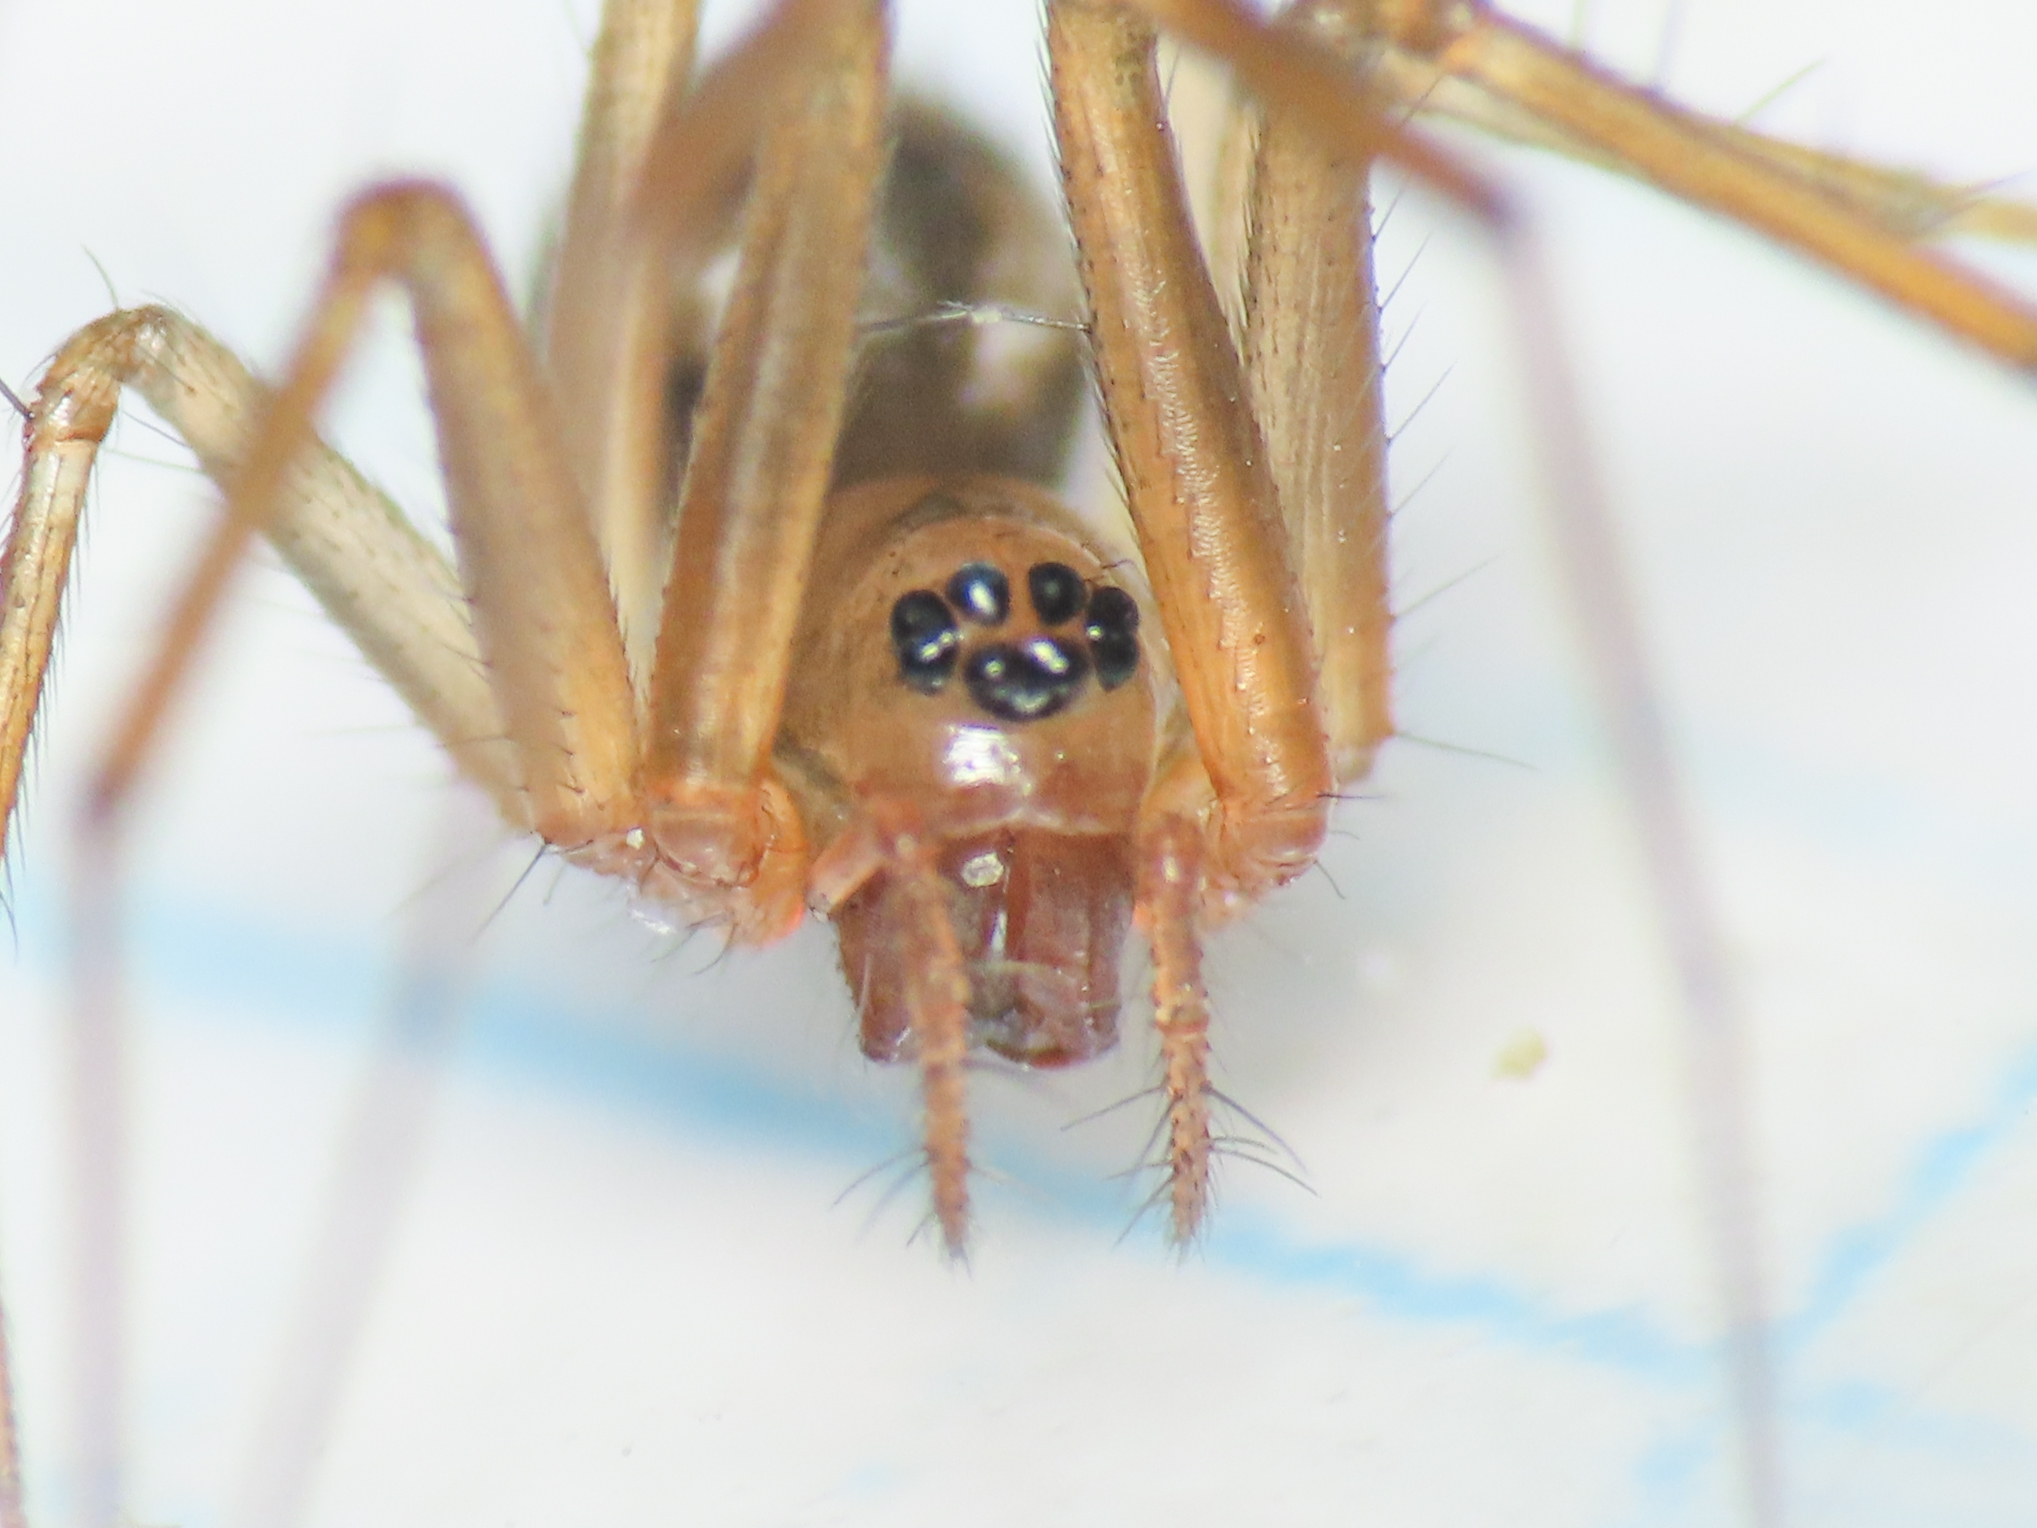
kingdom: Animalia
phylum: Arthropoda
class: Arachnida
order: Araneae
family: Linyphiidae
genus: Tenuiphantes
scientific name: Tenuiphantes tenuis
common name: Dwarf weaver
